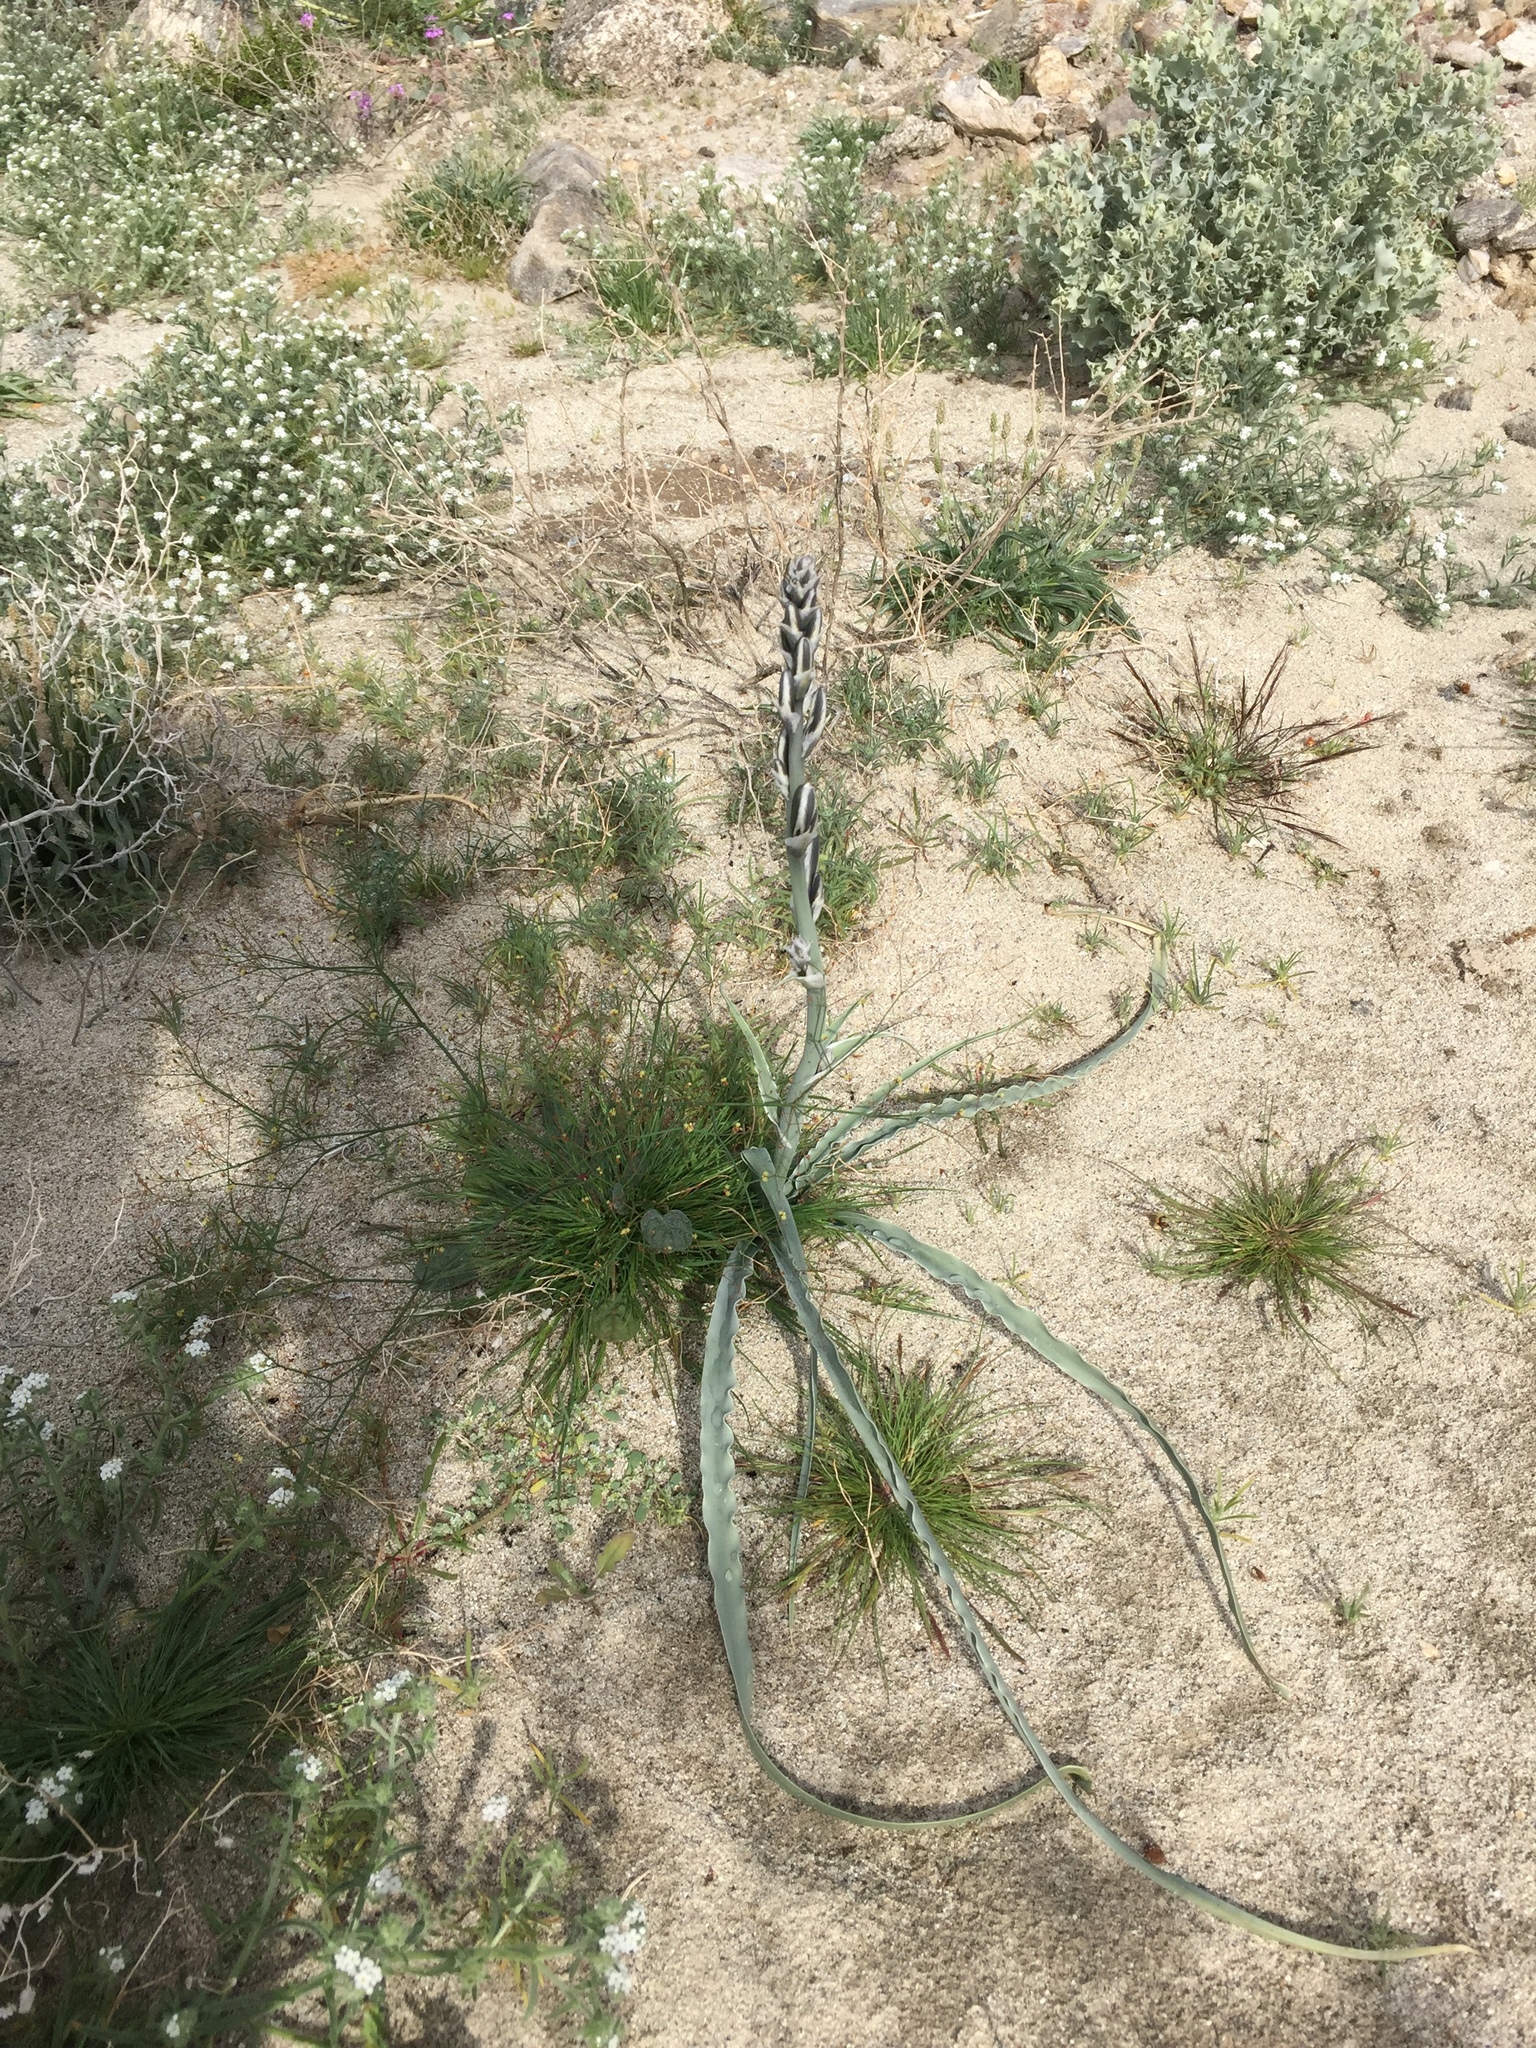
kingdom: Plantae
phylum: Tracheophyta
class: Liliopsida
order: Asparagales
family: Asparagaceae
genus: Hesperocallis
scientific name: Hesperocallis undulata
